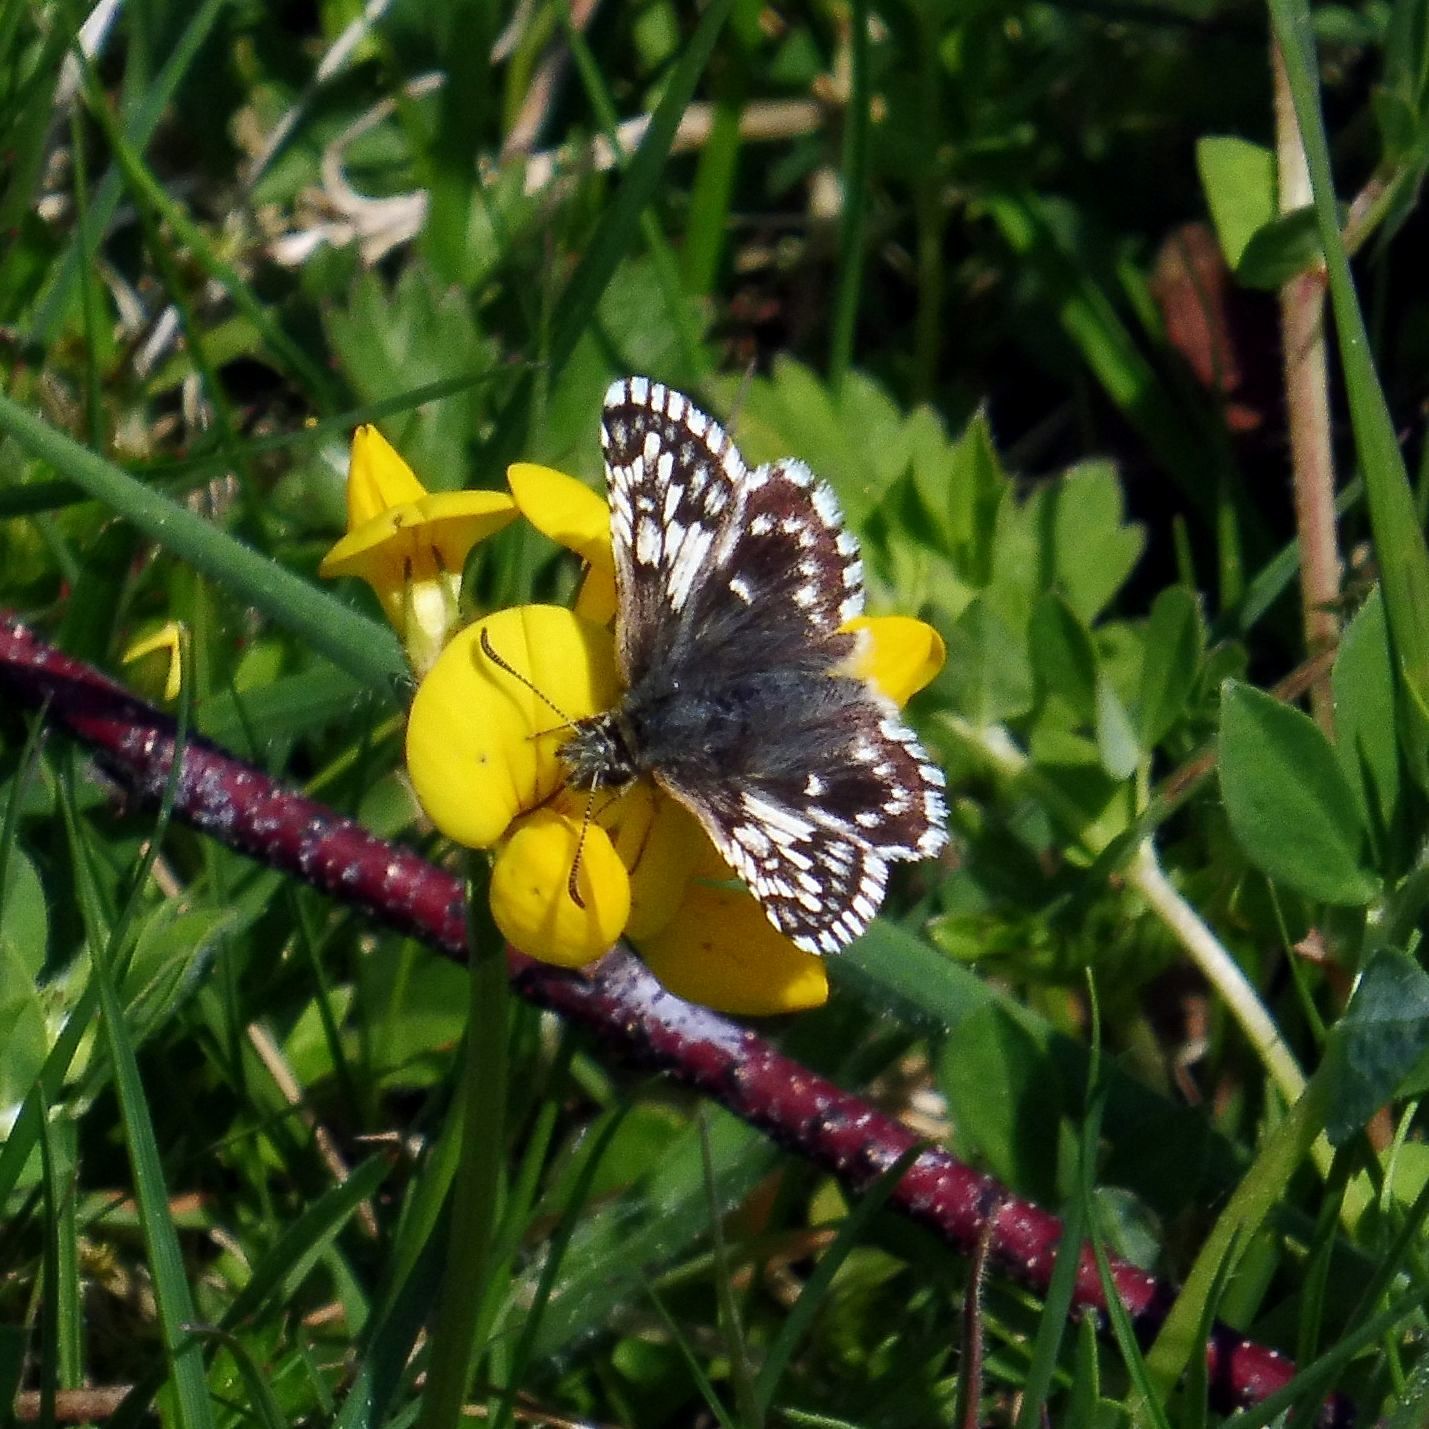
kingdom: Animalia
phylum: Arthropoda
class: Insecta
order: Lepidoptera
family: Hesperiidae
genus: Pyrgus
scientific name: Pyrgus malvae
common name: Grizzled skipper
